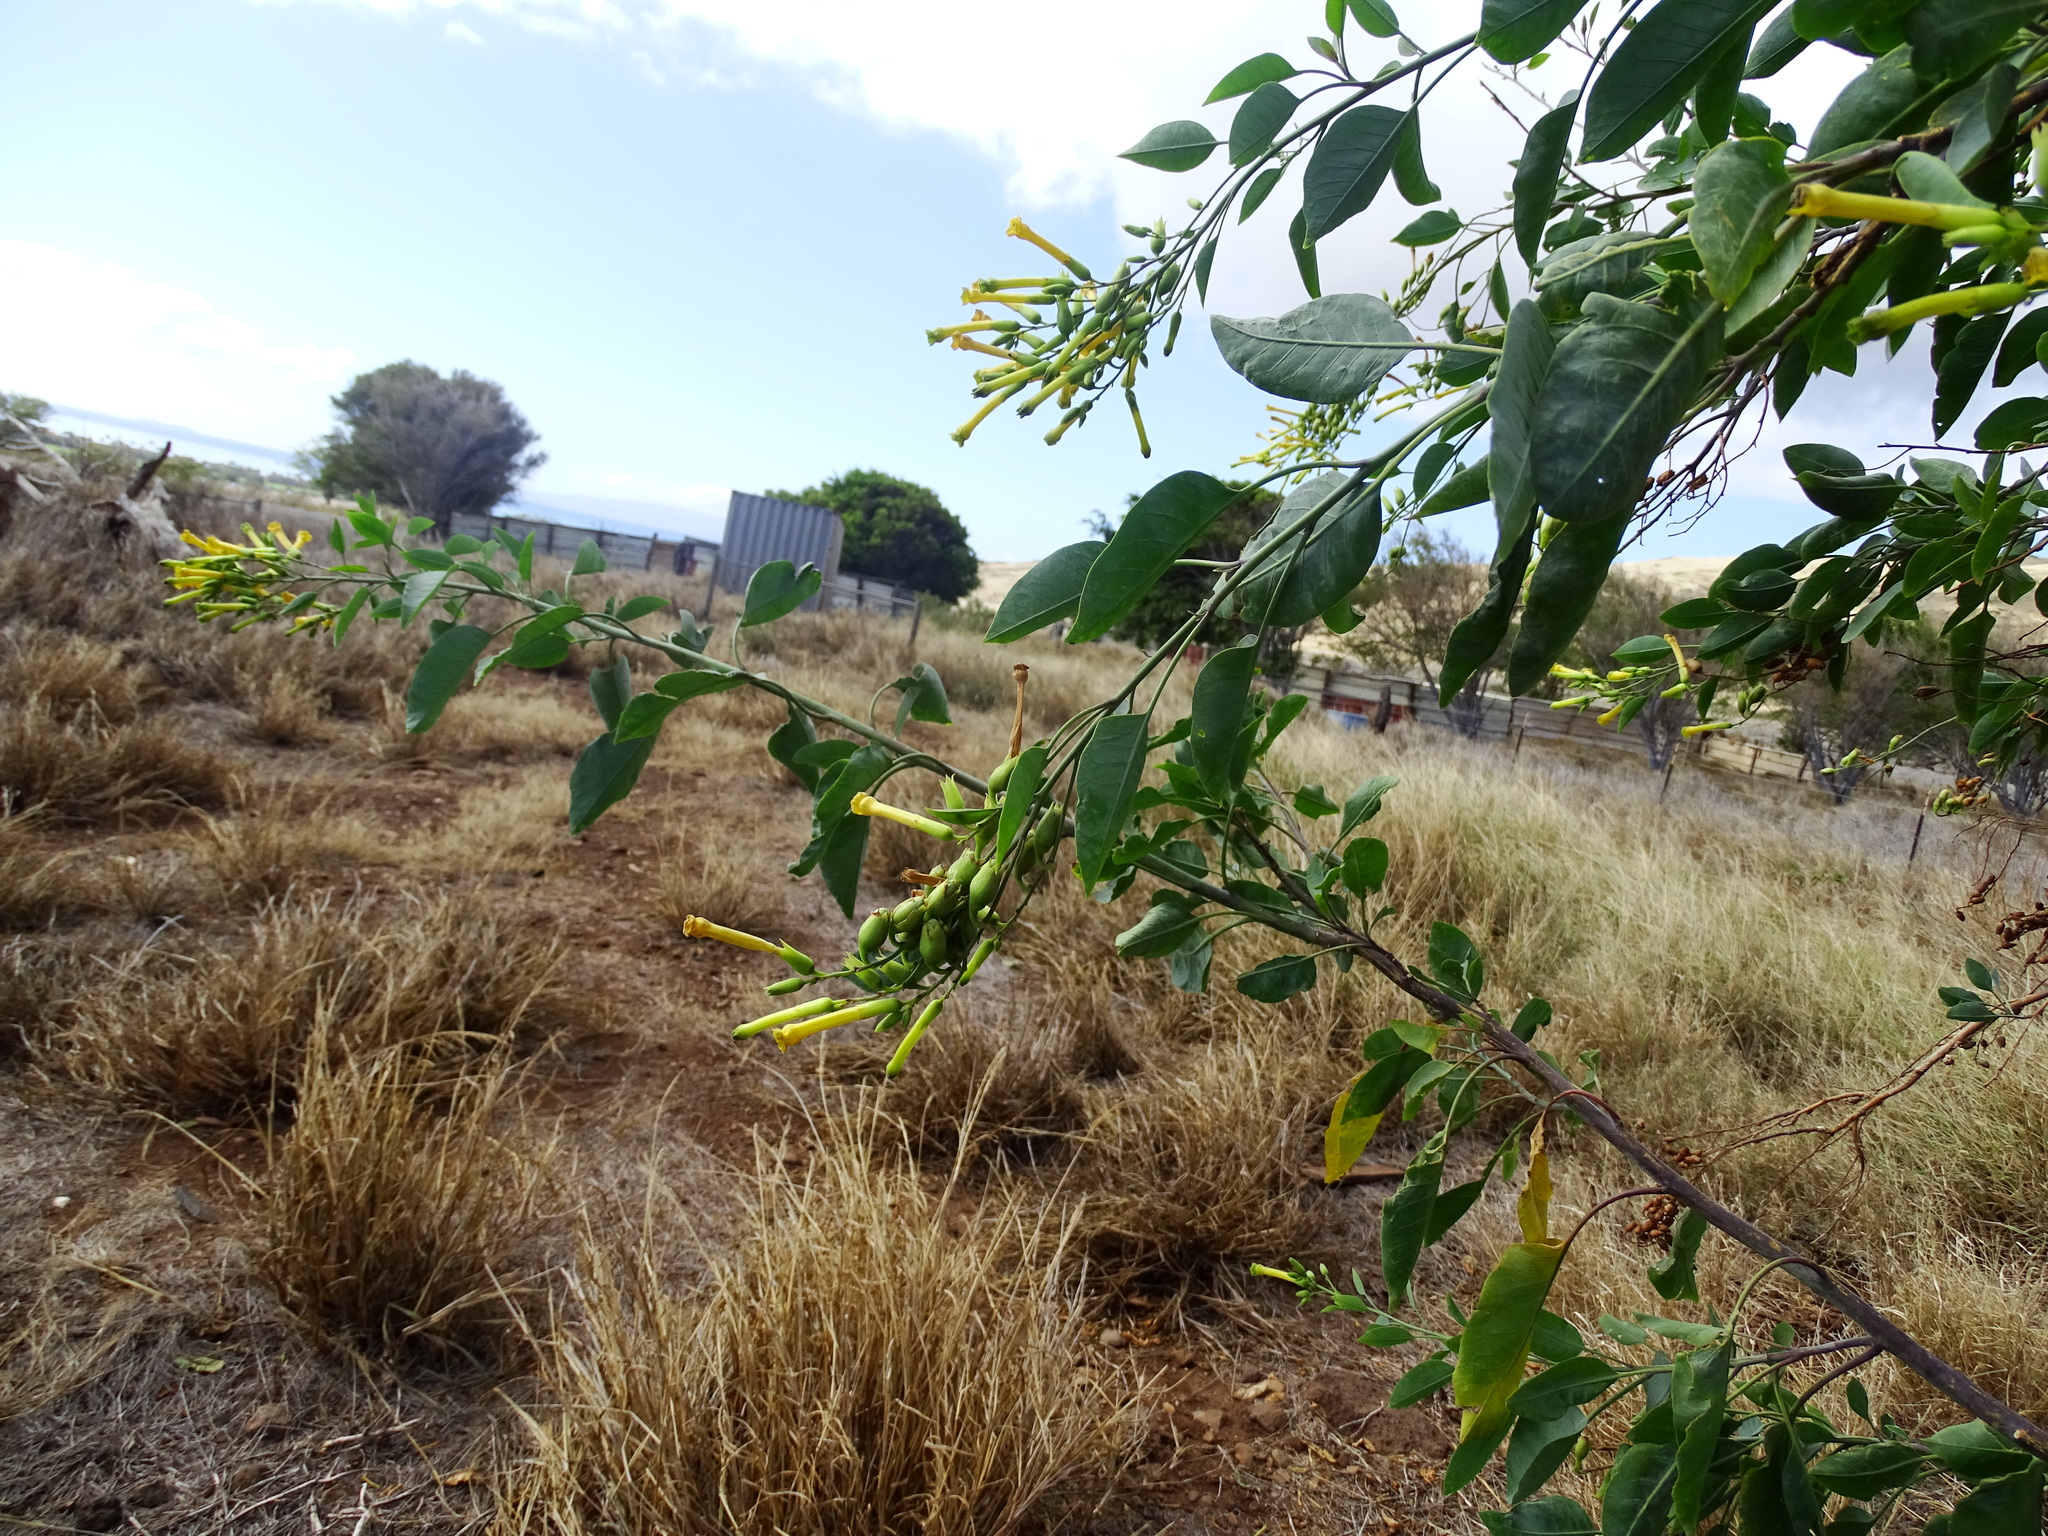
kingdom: Plantae
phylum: Tracheophyta
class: Magnoliopsida
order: Solanales
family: Solanaceae
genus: Nicotiana
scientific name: Nicotiana glauca
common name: Tree tobacco
